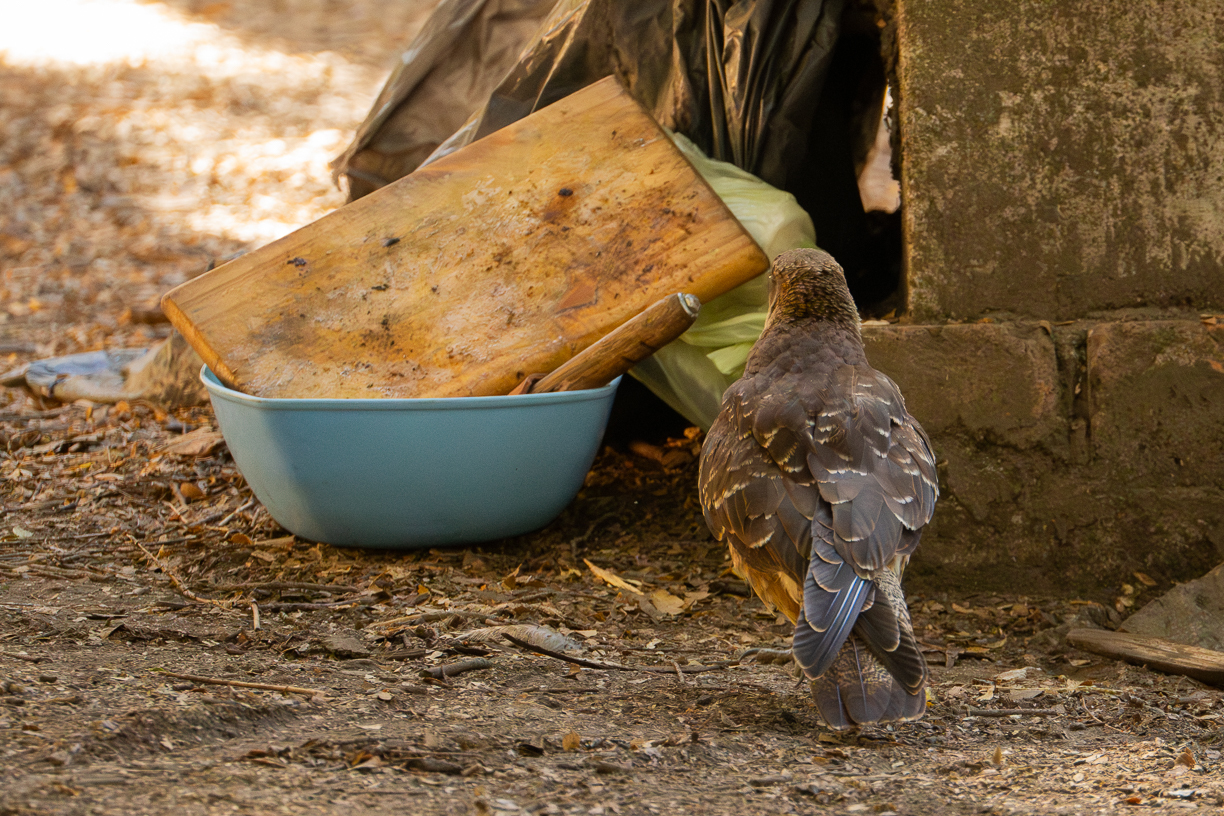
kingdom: Animalia
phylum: Chordata
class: Aves
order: Falconiformes
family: Falconidae
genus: Daptrius
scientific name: Daptrius
